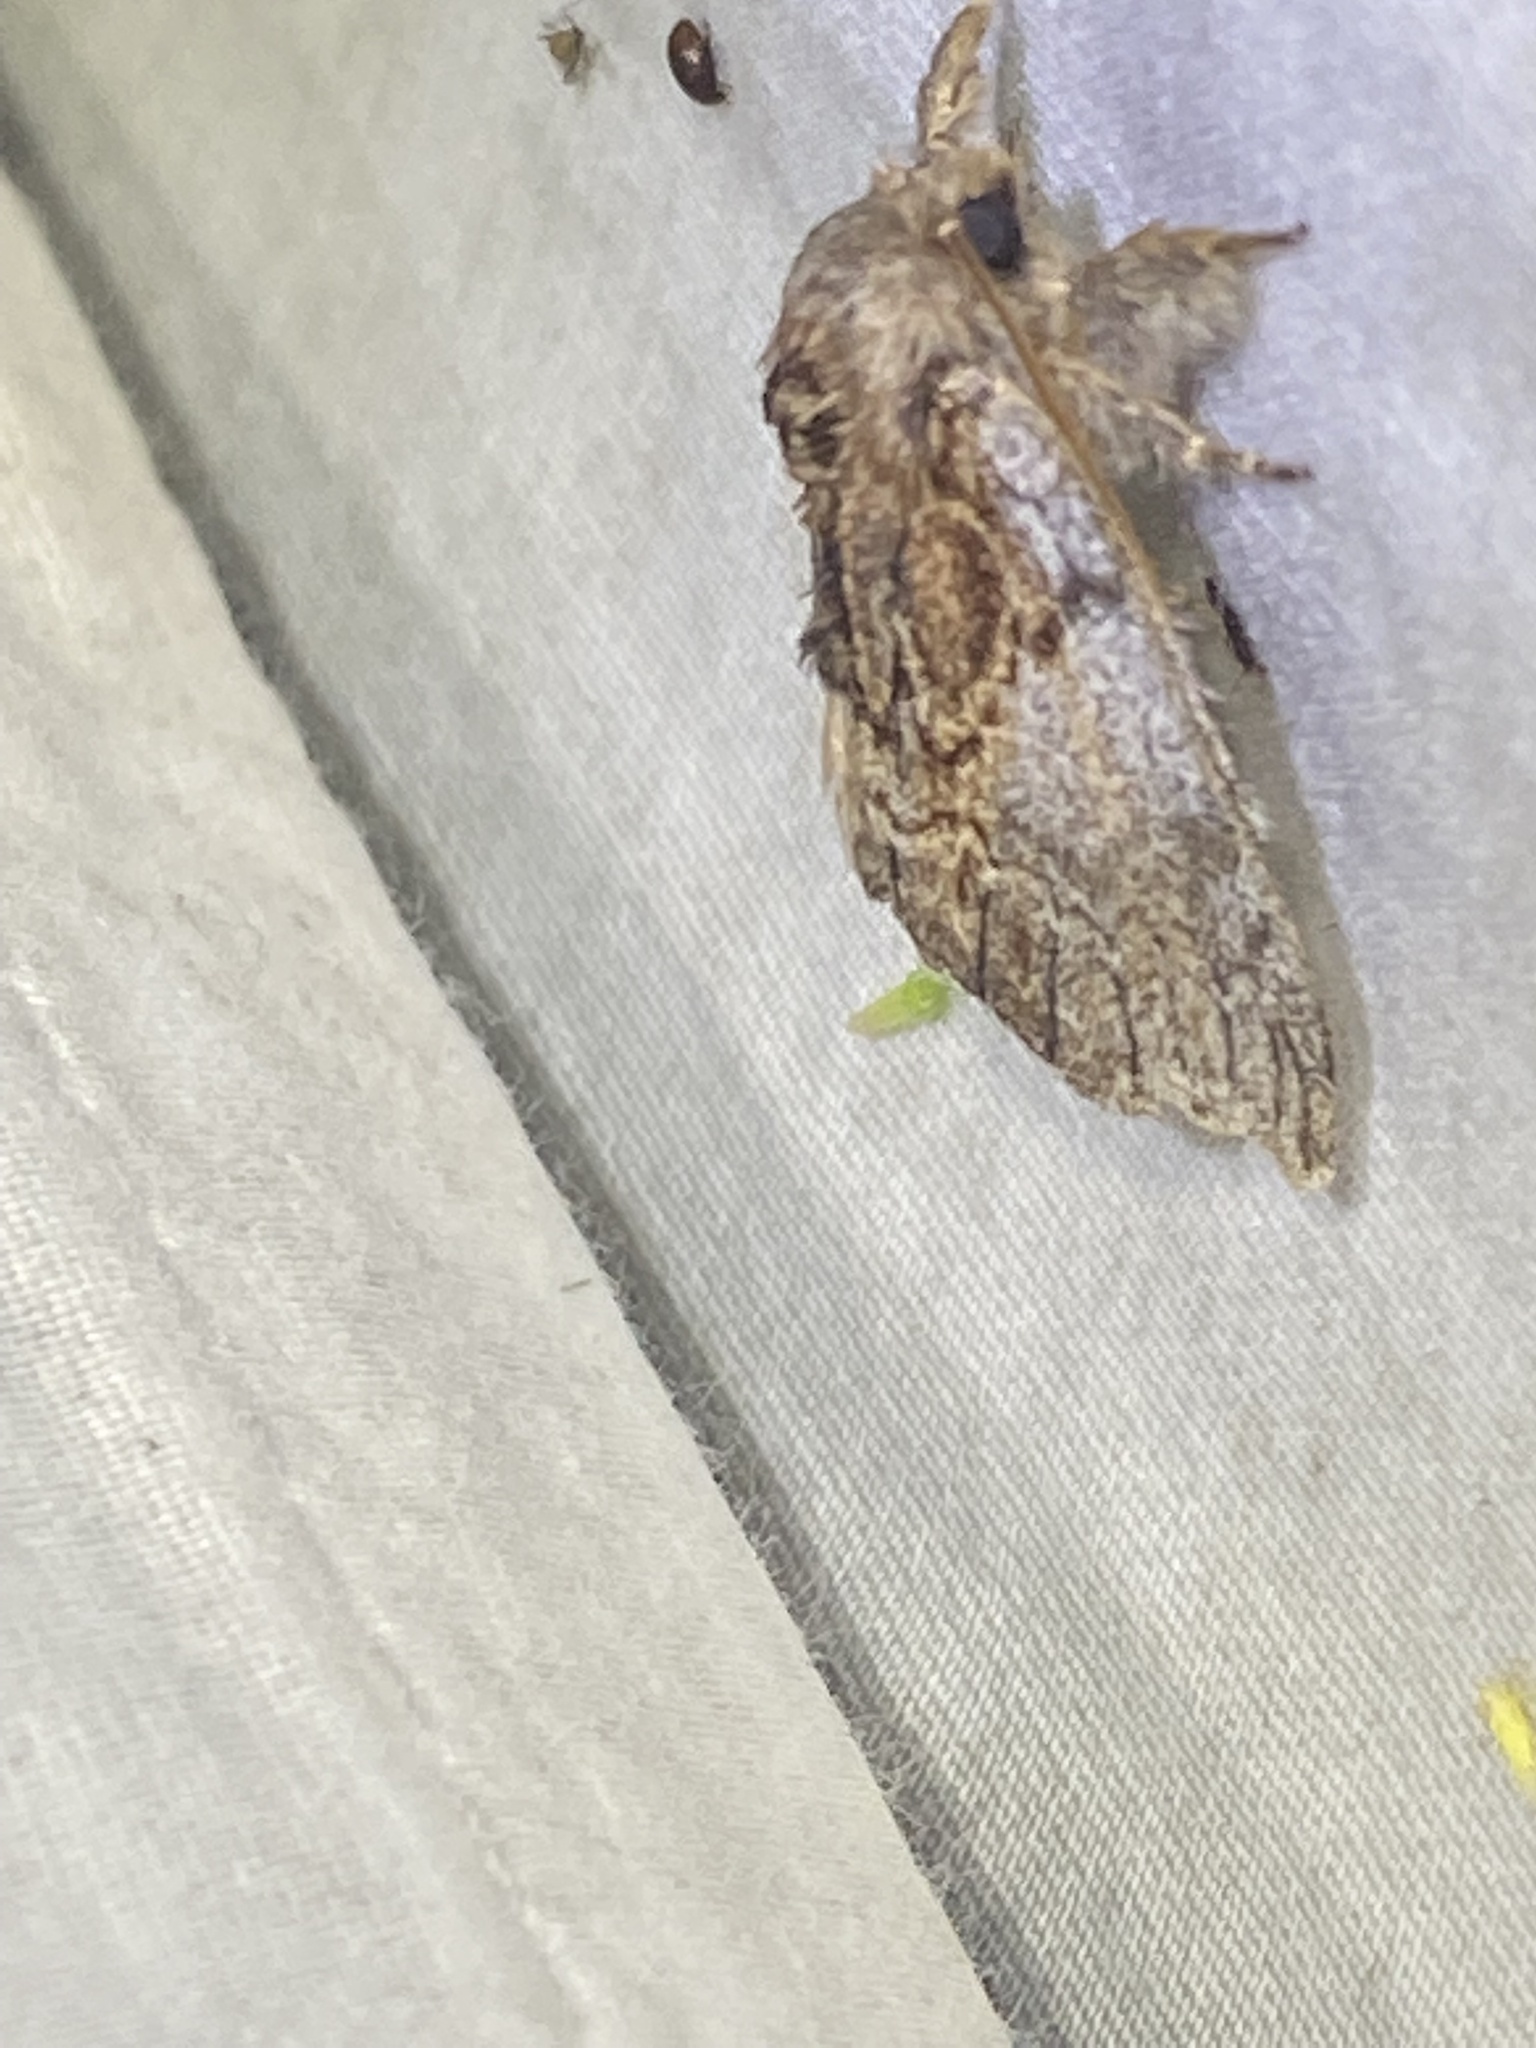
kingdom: Animalia
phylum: Arthropoda
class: Insecta
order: Lepidoptera
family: Notodontidae
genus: Peridea
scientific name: Peridea basitriens
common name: Oval-based prominent
